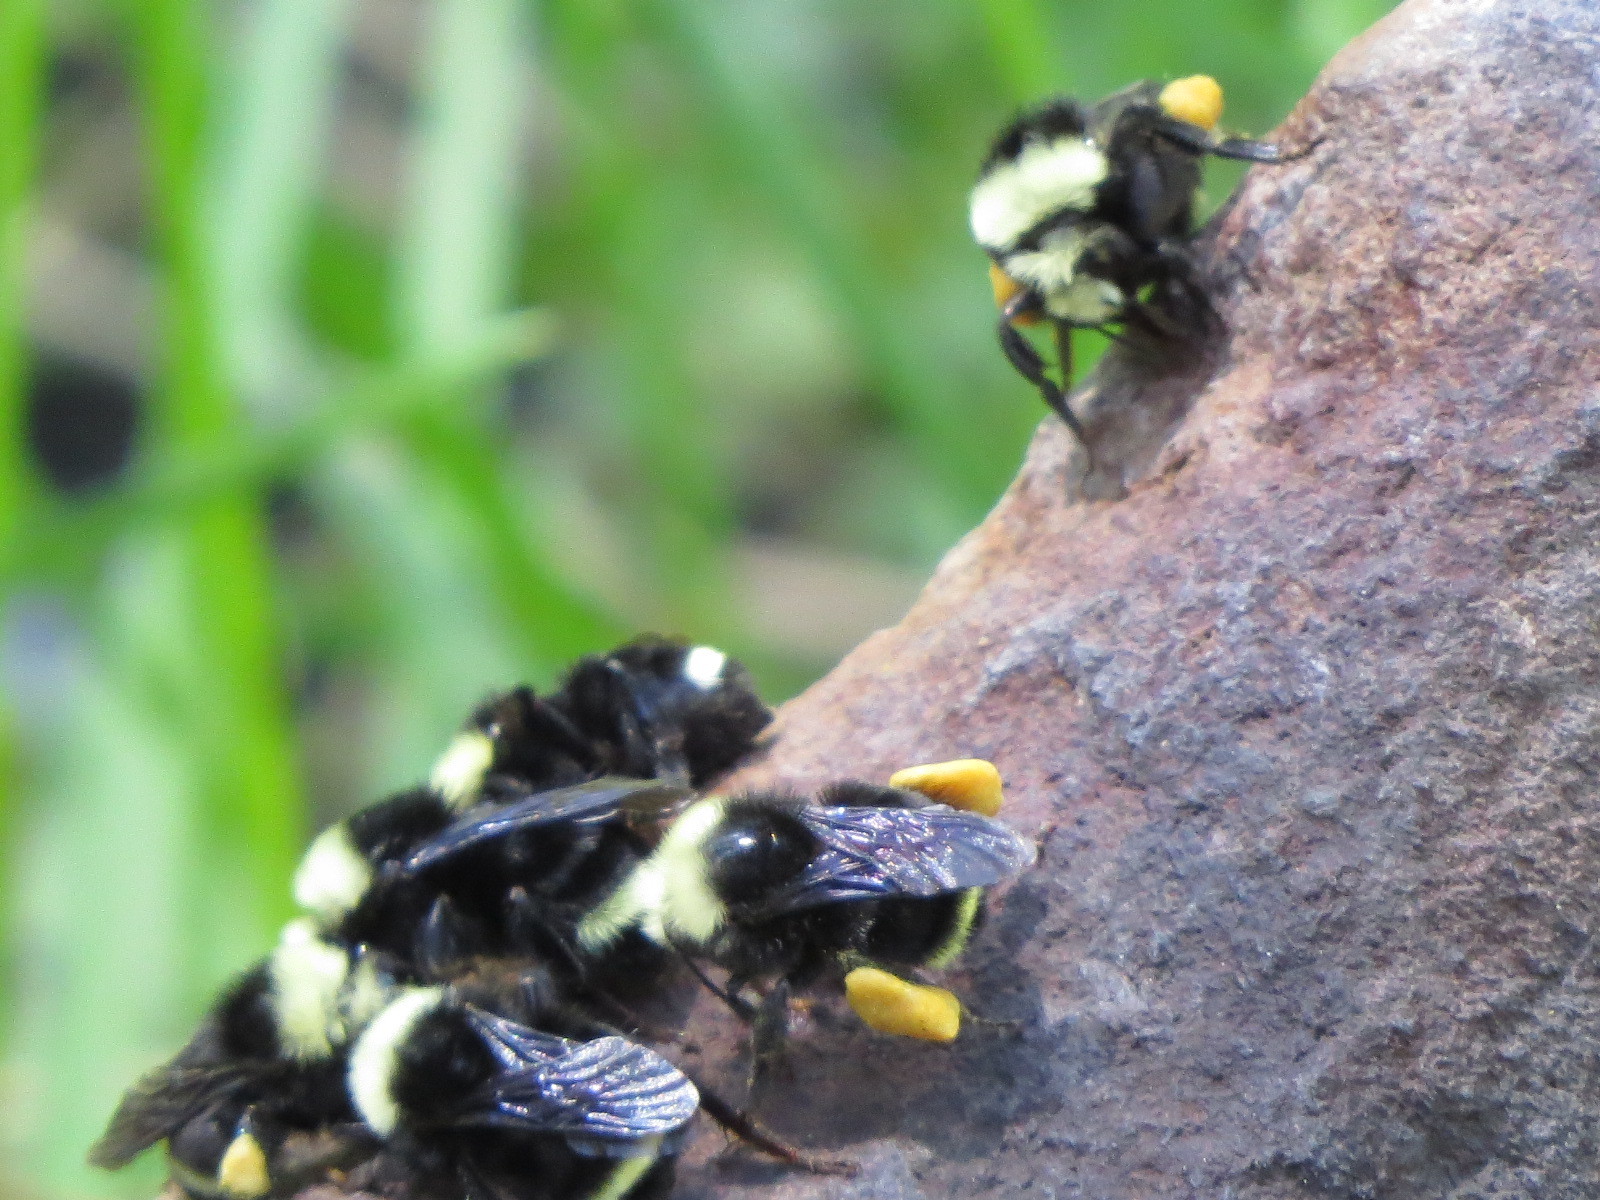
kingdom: Animalia
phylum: Arthropoda
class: Insecta
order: Hymenoptera
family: Apidae
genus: Bombus
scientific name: Bombus vosnesenskii
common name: Vosnesensky bumble bee
